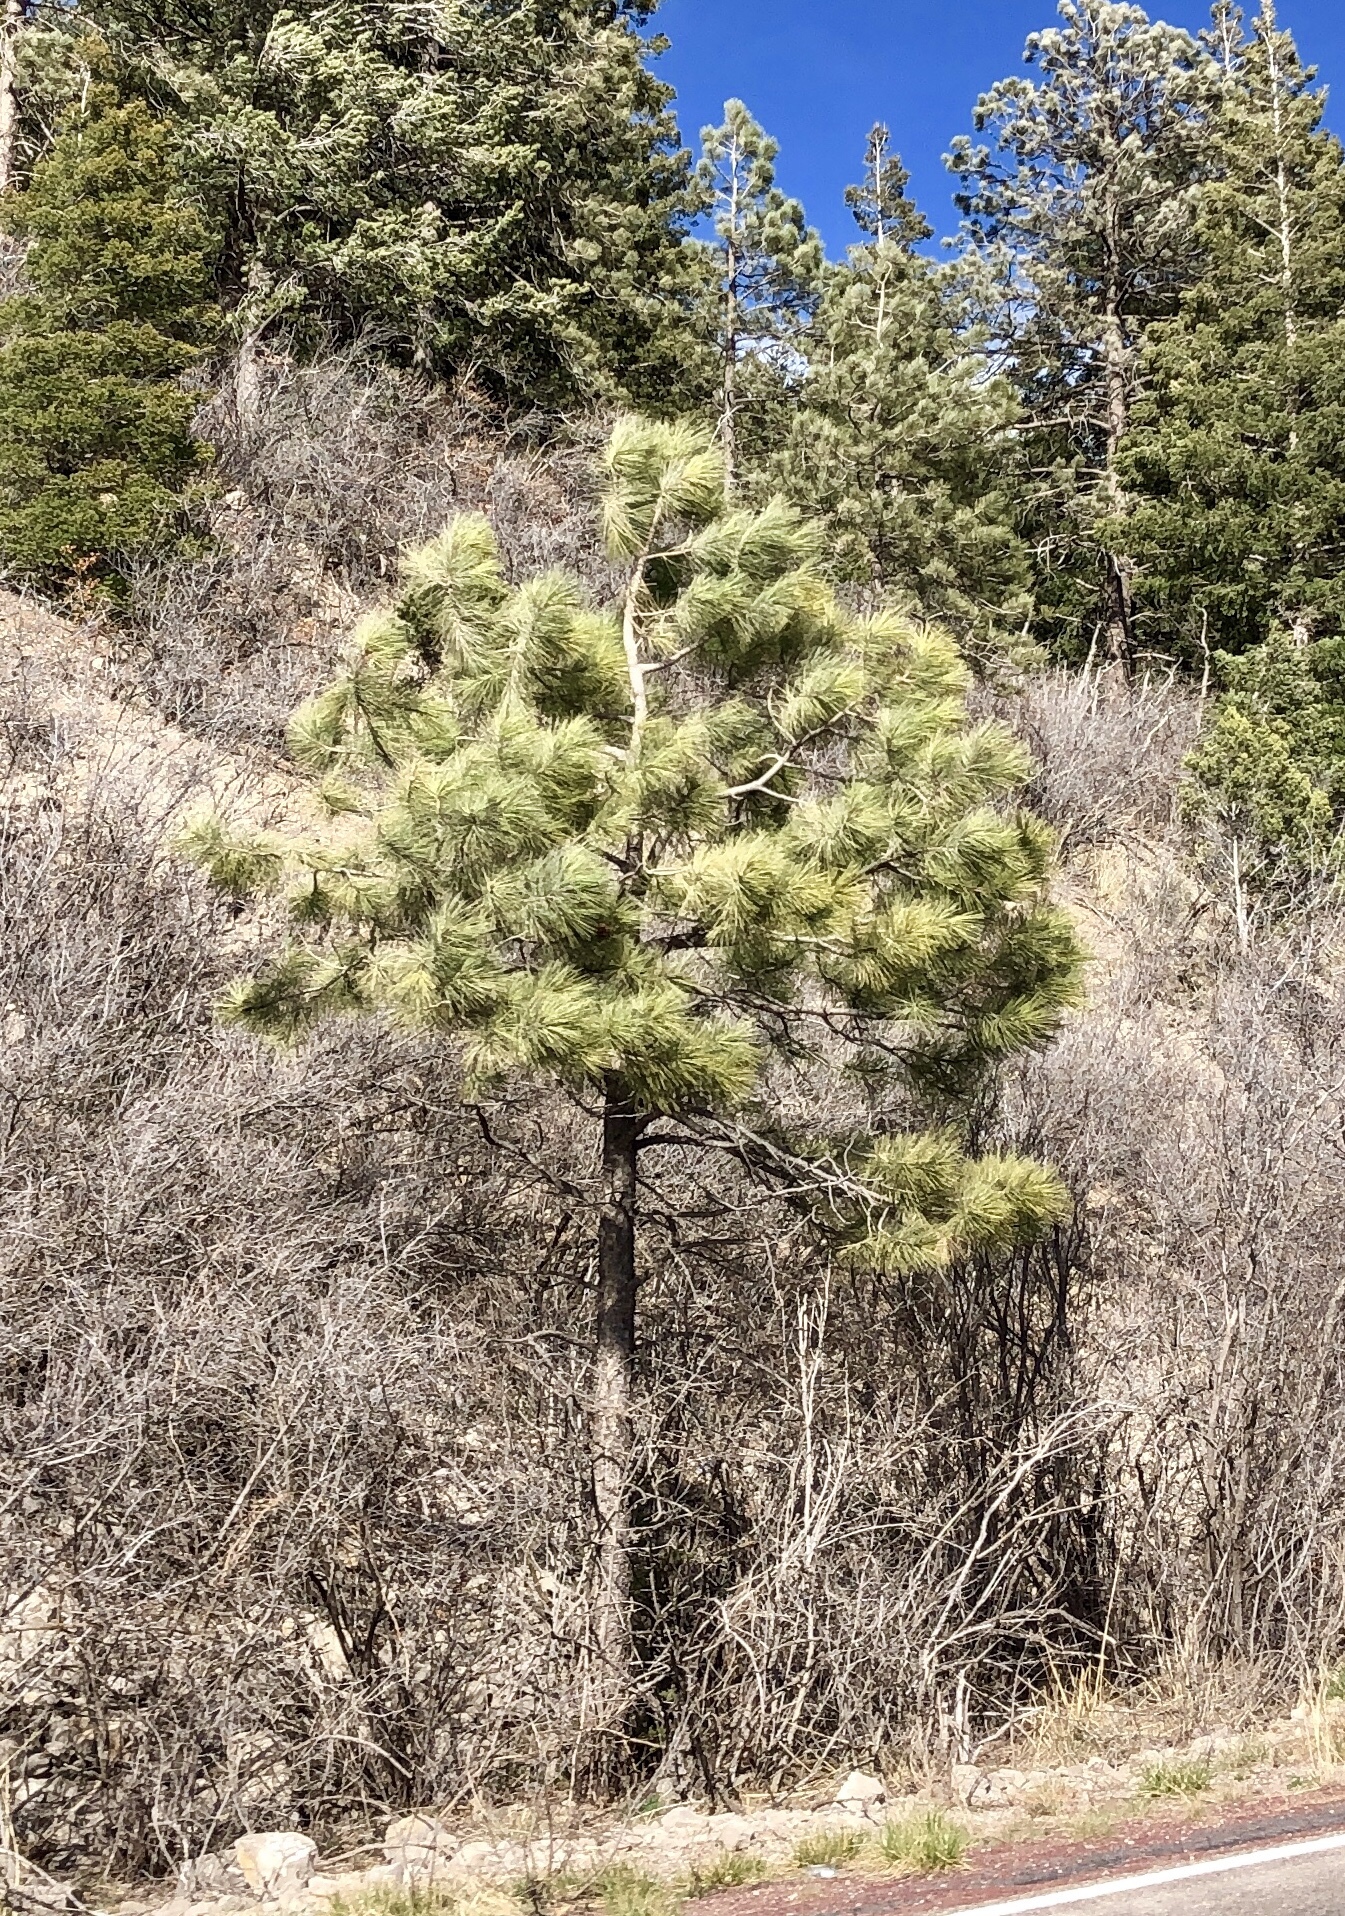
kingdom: Plantae
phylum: Tracheophyta
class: Pinopsida
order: Pinales
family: Pinaceae
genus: Pinus
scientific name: Pinus ponderosa
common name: Western yellow-pine
